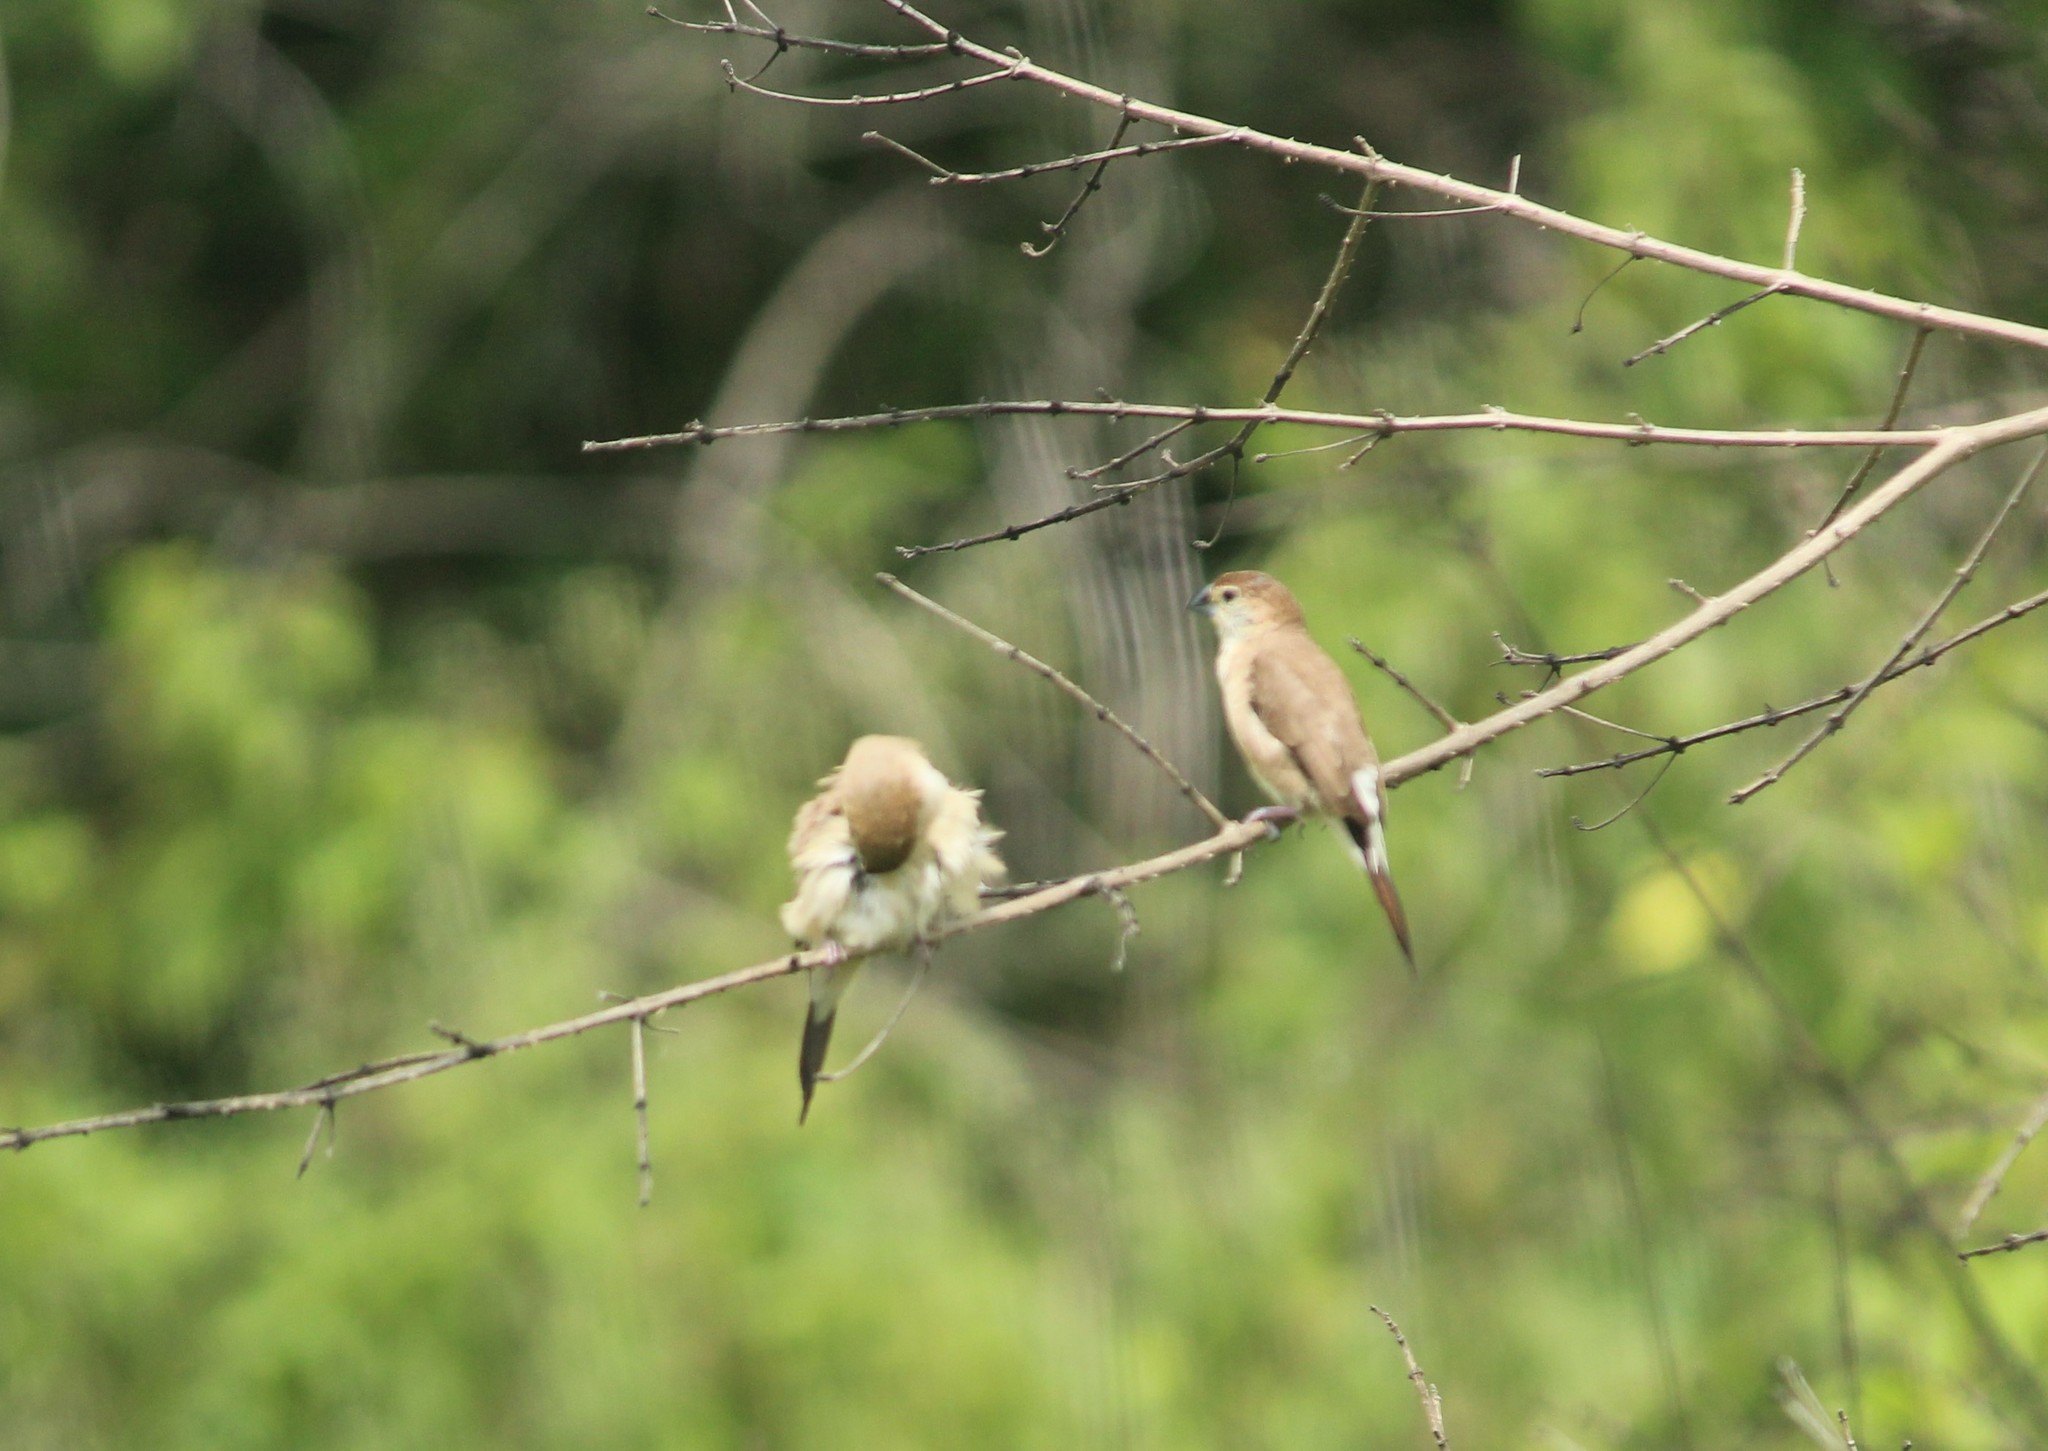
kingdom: Animalia
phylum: Chordata
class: Aves
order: Passeriformes
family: Estrildidae
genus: Euodice
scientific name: Euodice malabarica
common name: Indian silverbill
